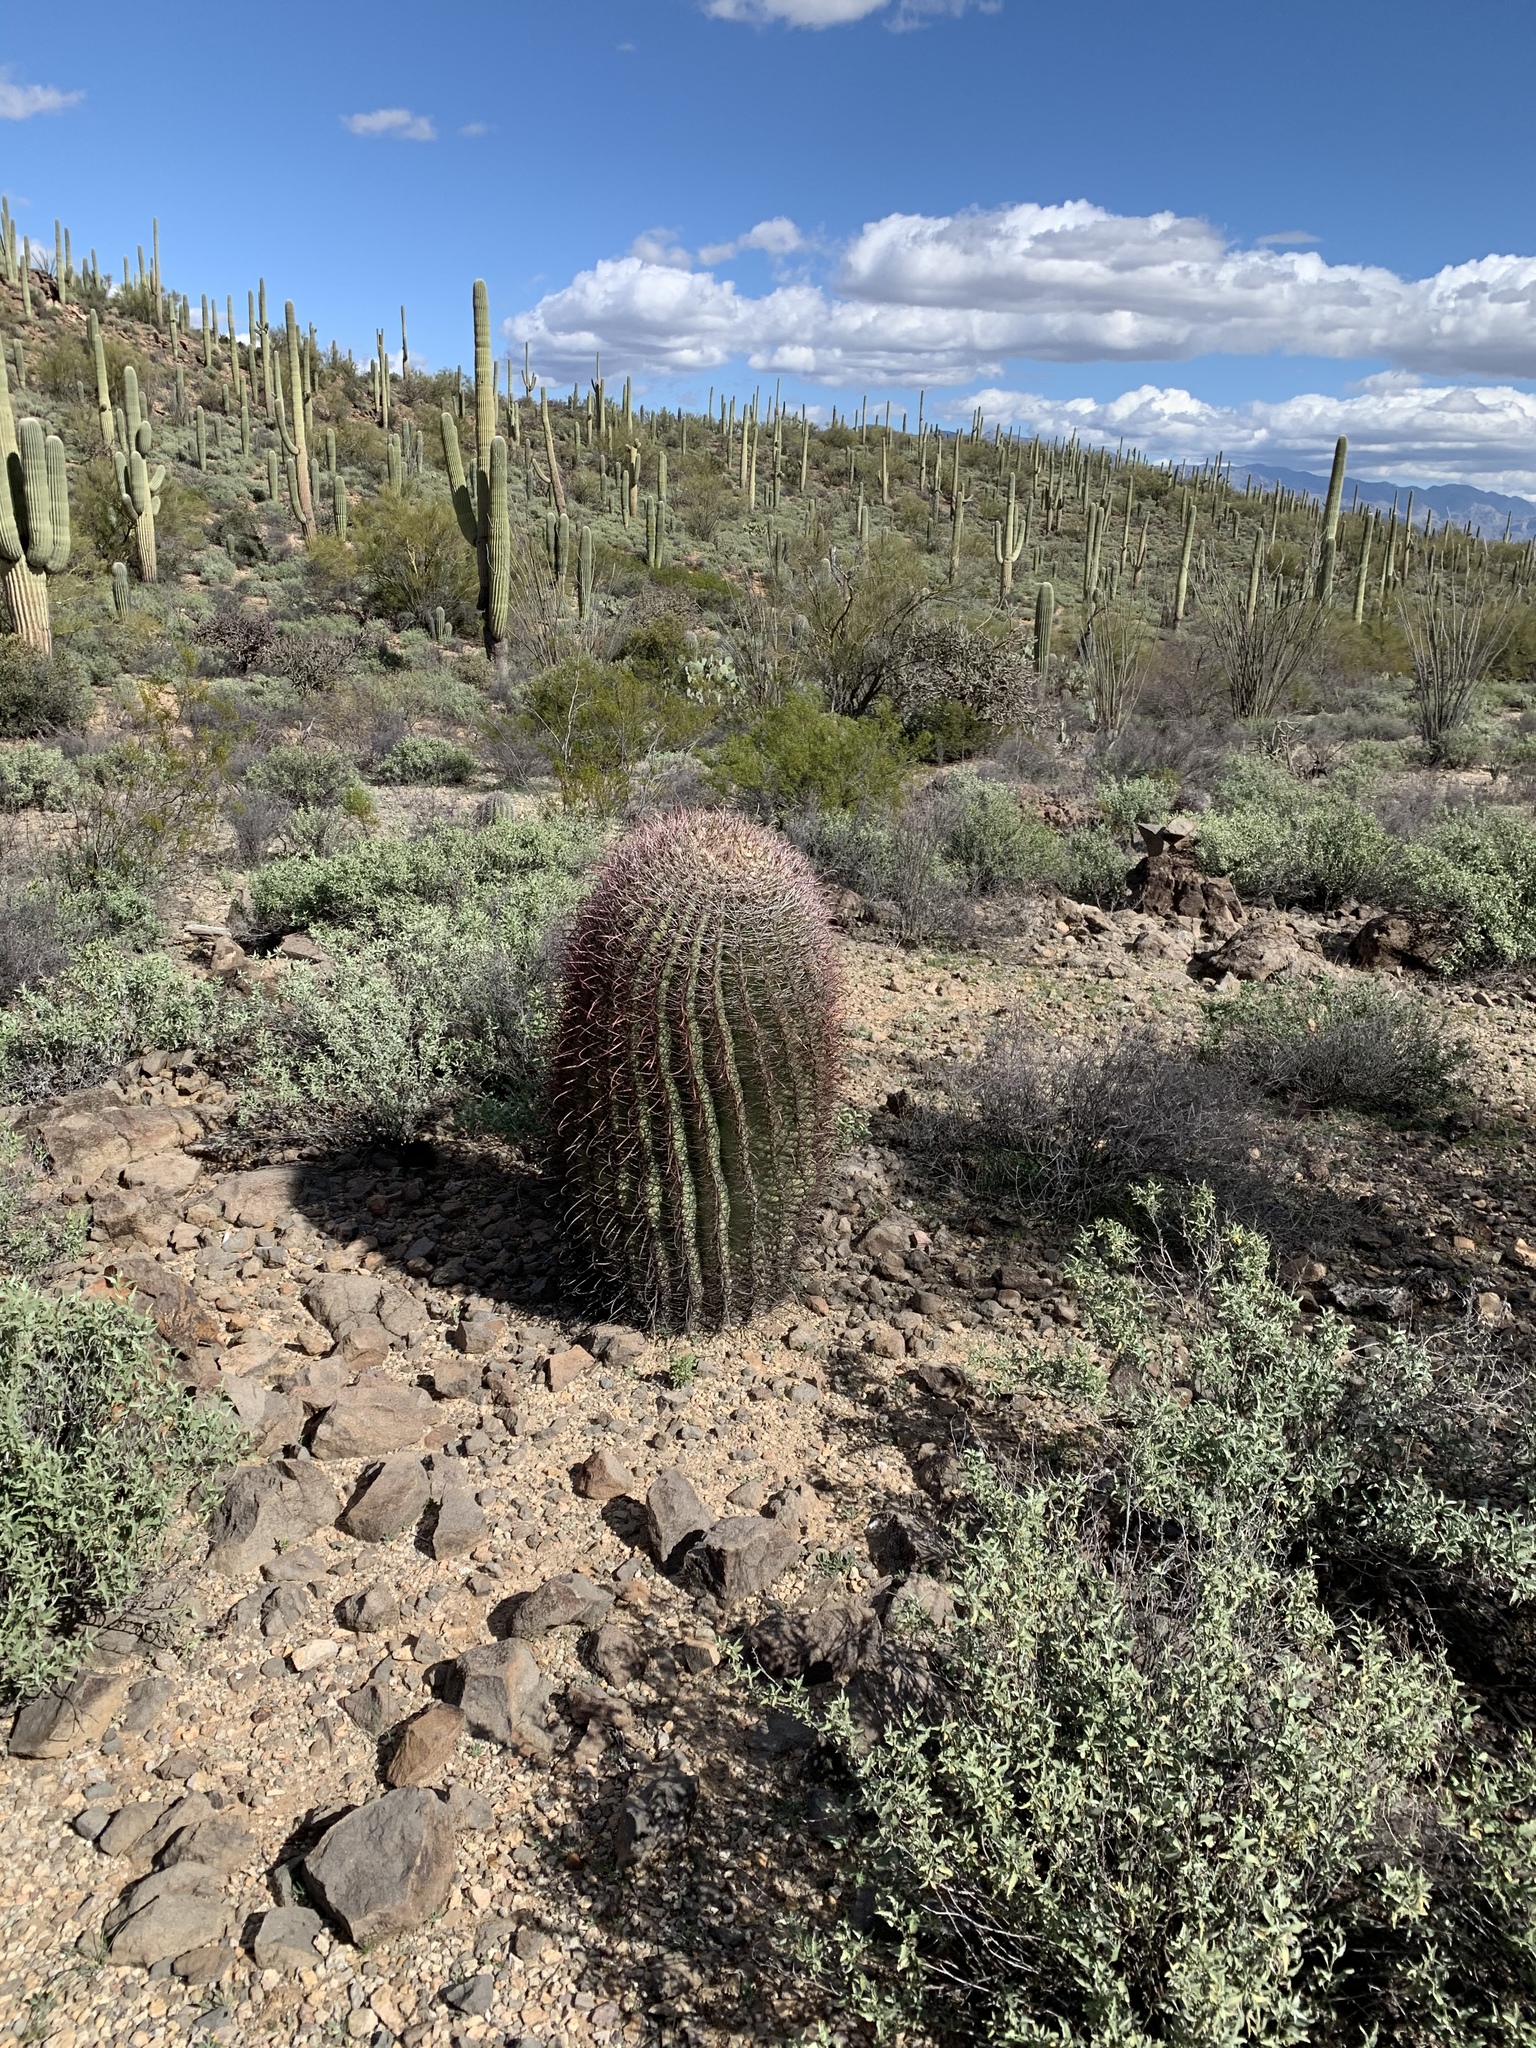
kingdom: Plantae
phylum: Tracheophyta
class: Magnoliopsida
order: Caryophyllales
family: Cactaceae
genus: Ferocactus
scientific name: Ferocactus wislizeni
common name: Candy barrel cactus
